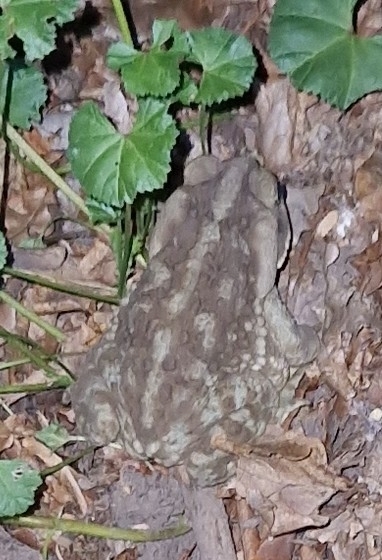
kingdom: Animalia
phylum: Chordata
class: Amphibia
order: Anura
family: Bufonidae
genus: Rhinella
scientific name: Rhinella arenarum
